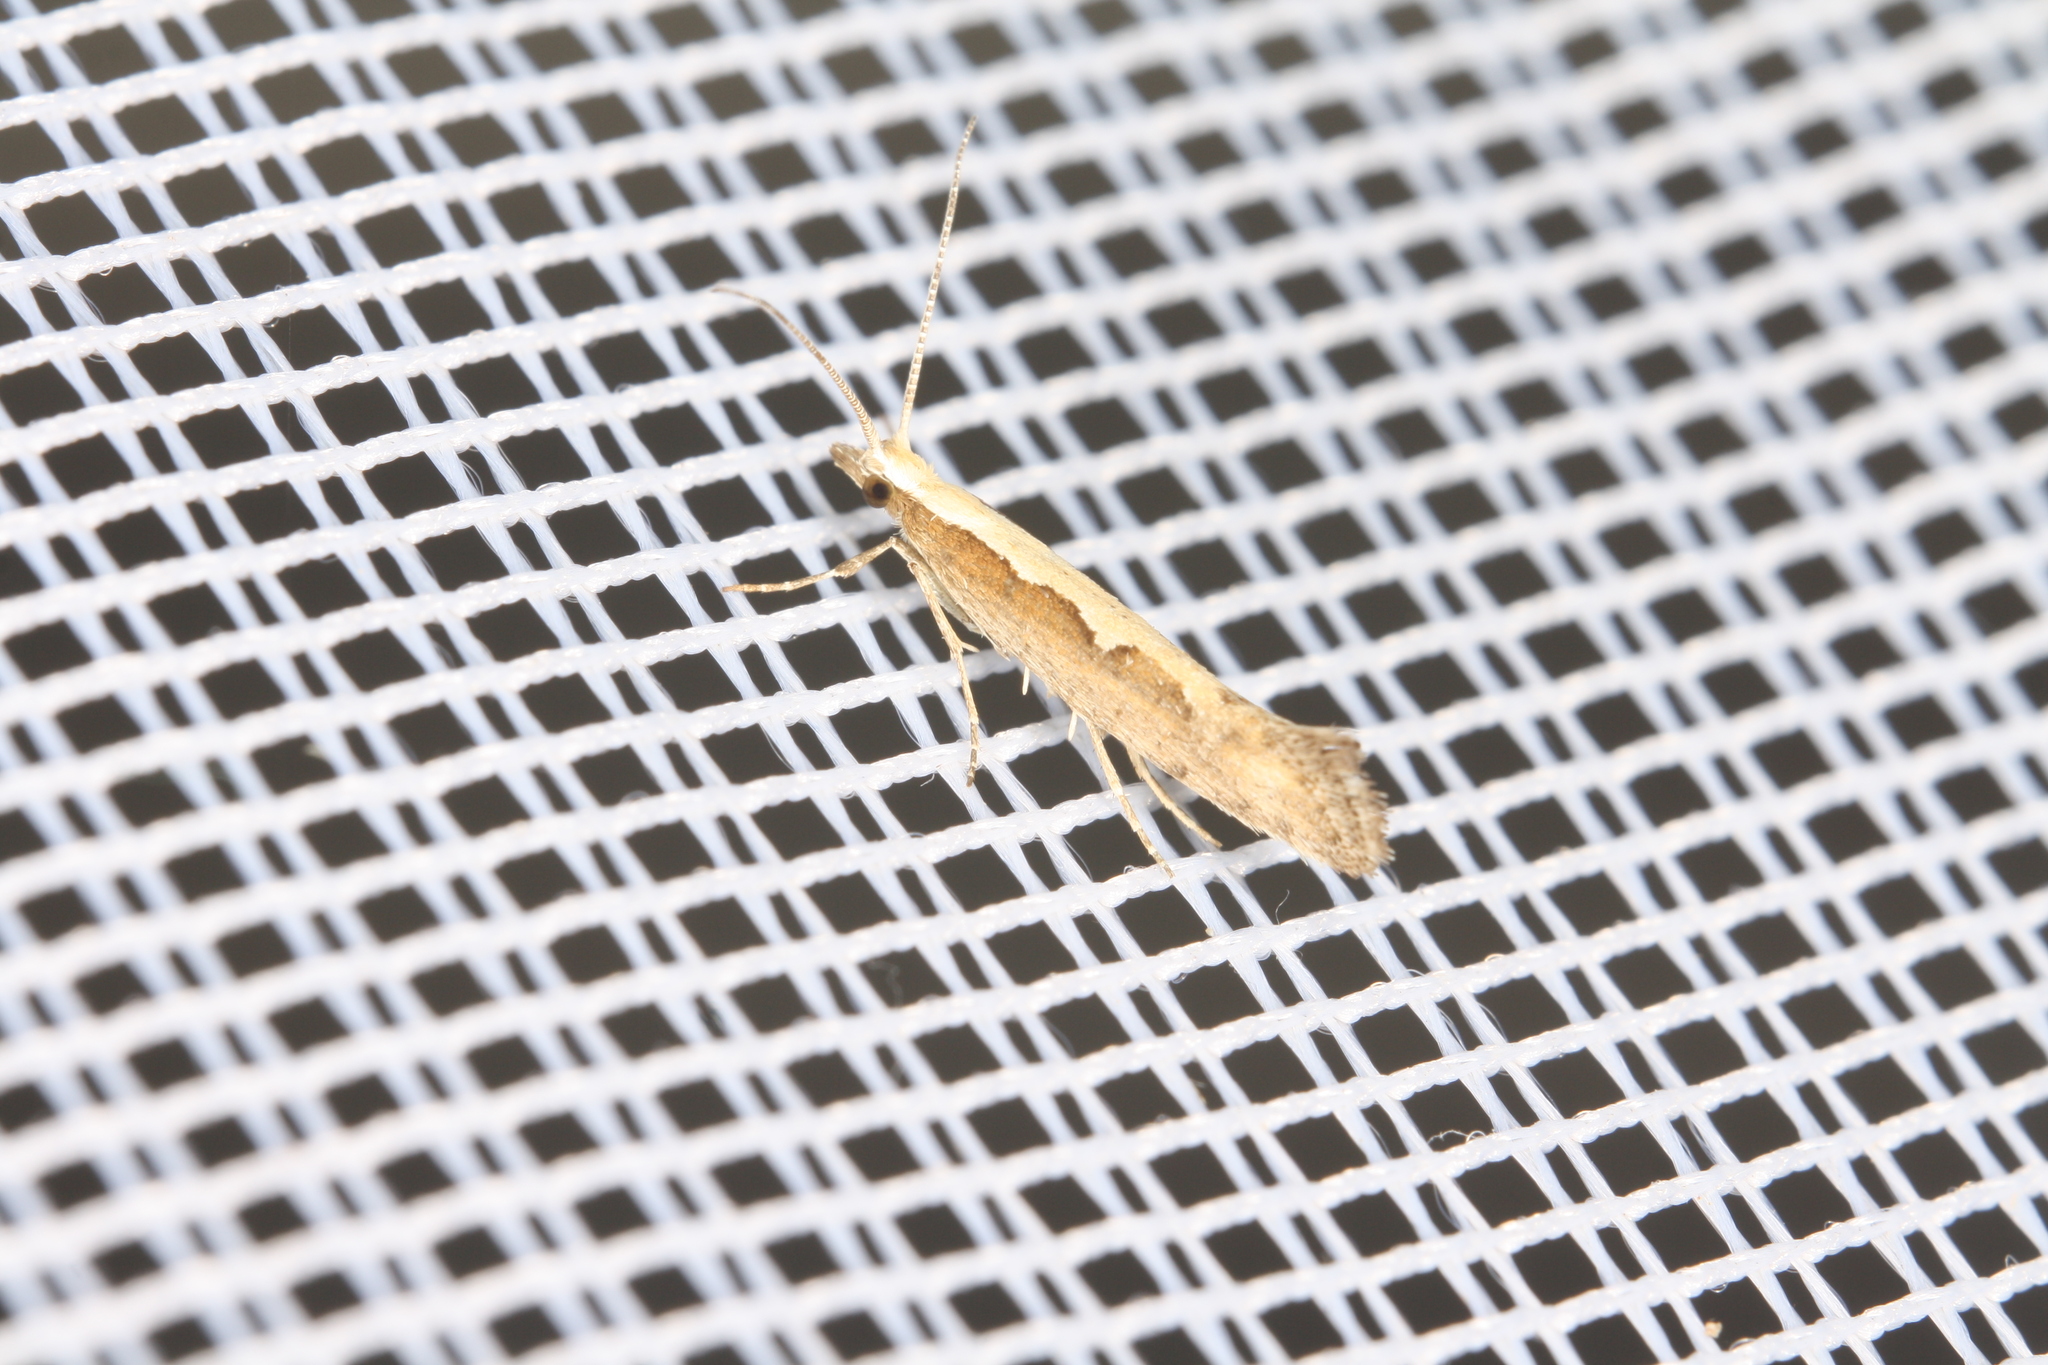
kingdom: Animalia
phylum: Arthropoda
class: Insecta
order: Lepidoptera
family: Plutellidae
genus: Plutella
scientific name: Plutella xylostella
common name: Diamond-back moth
